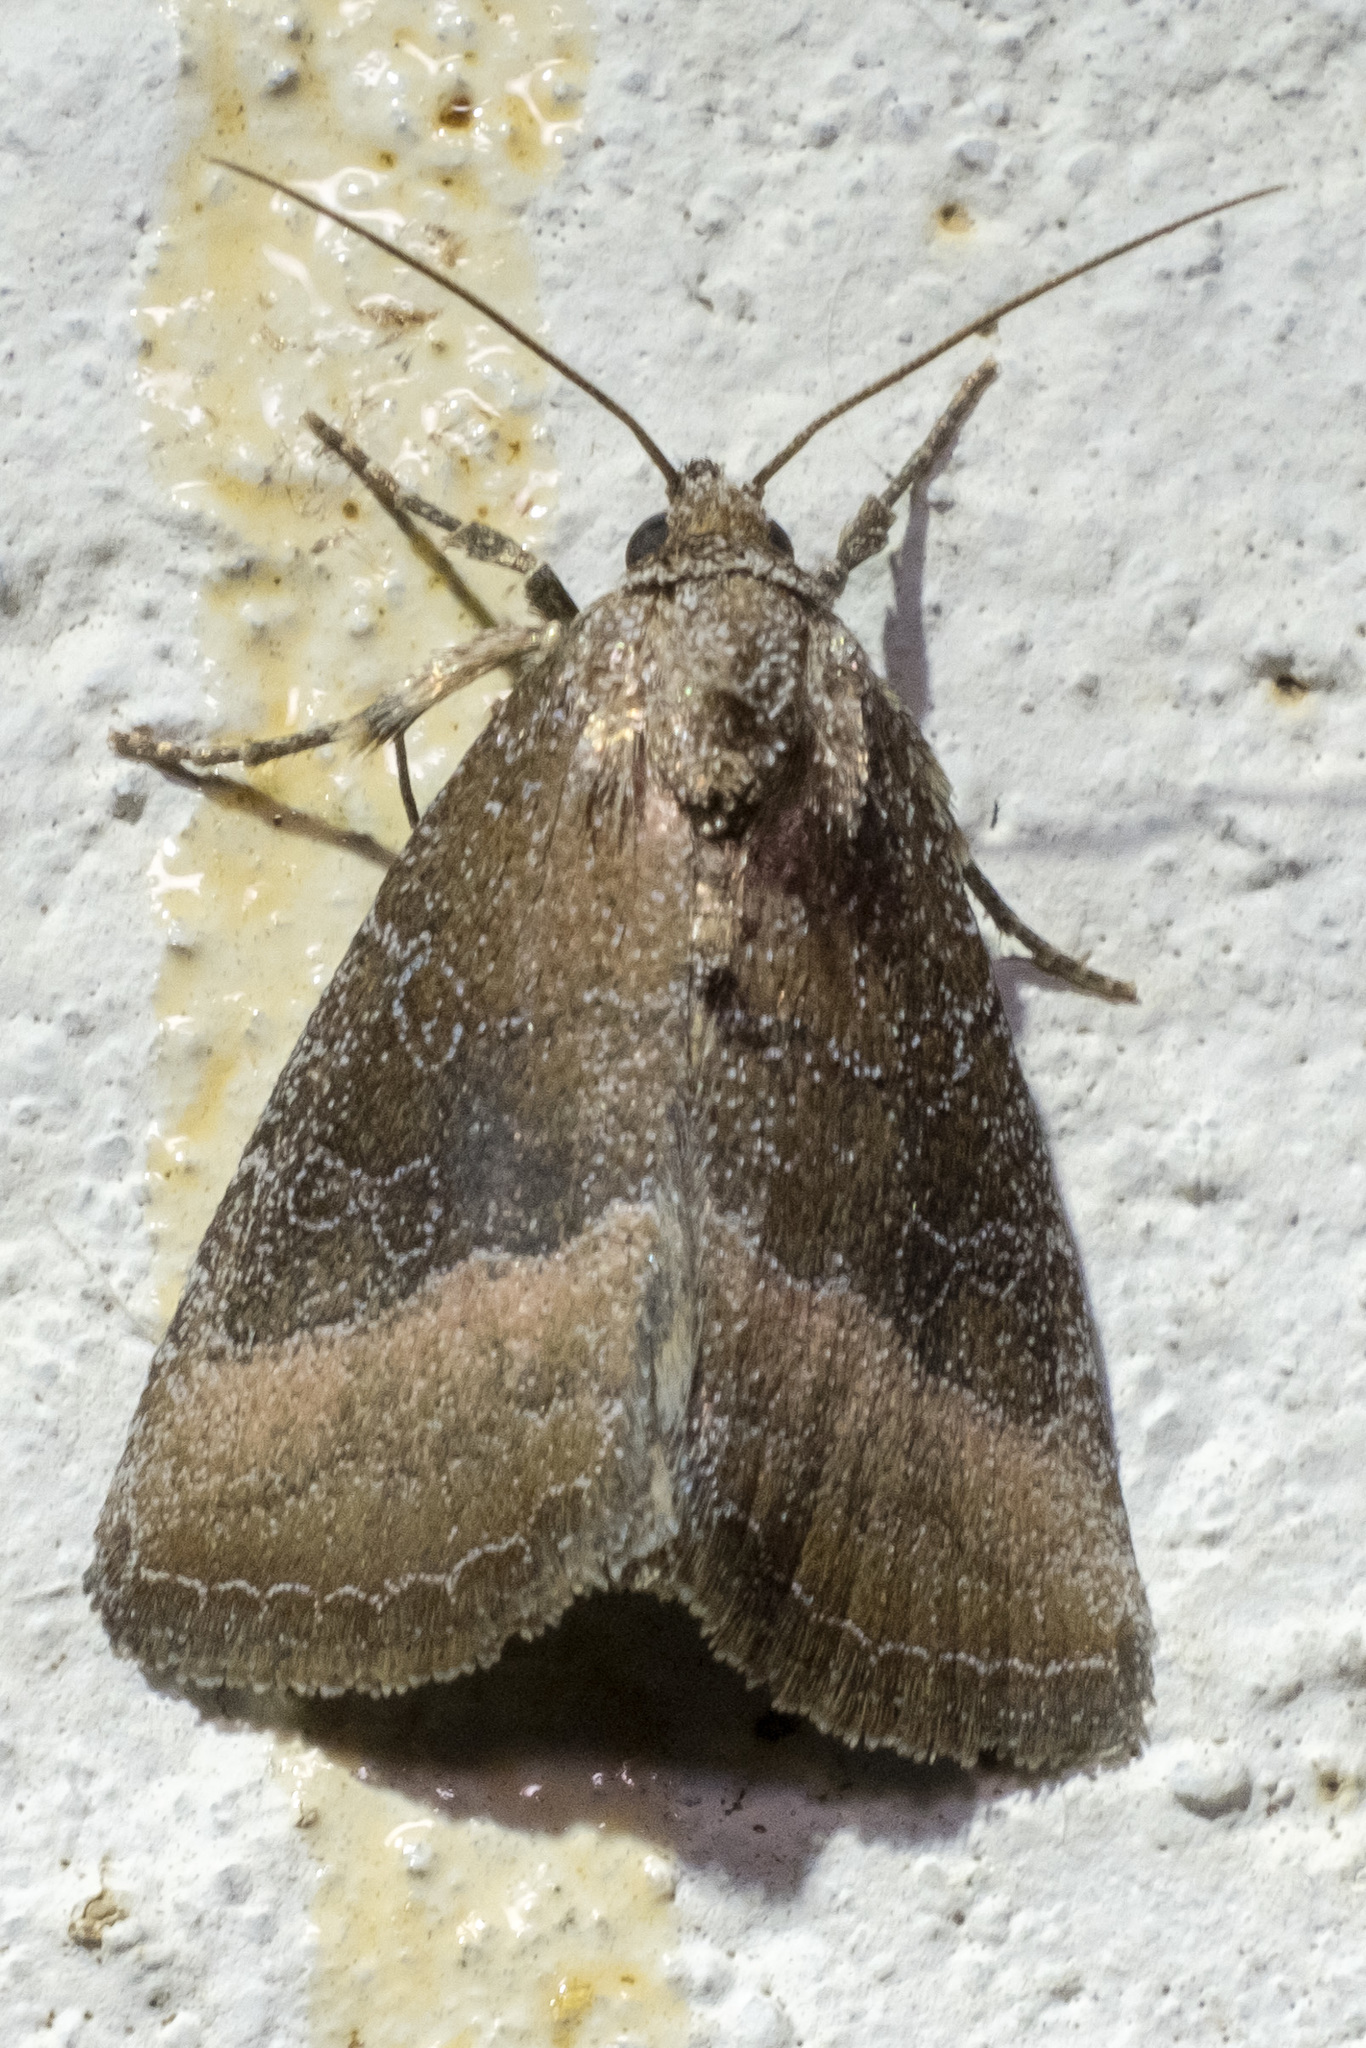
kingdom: Animalia
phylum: Arthropoda
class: Insecta
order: Lepidoptera
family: Noctuidae
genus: Ogdoconta
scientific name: Ogdoconta cinereola
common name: Common pinkband
